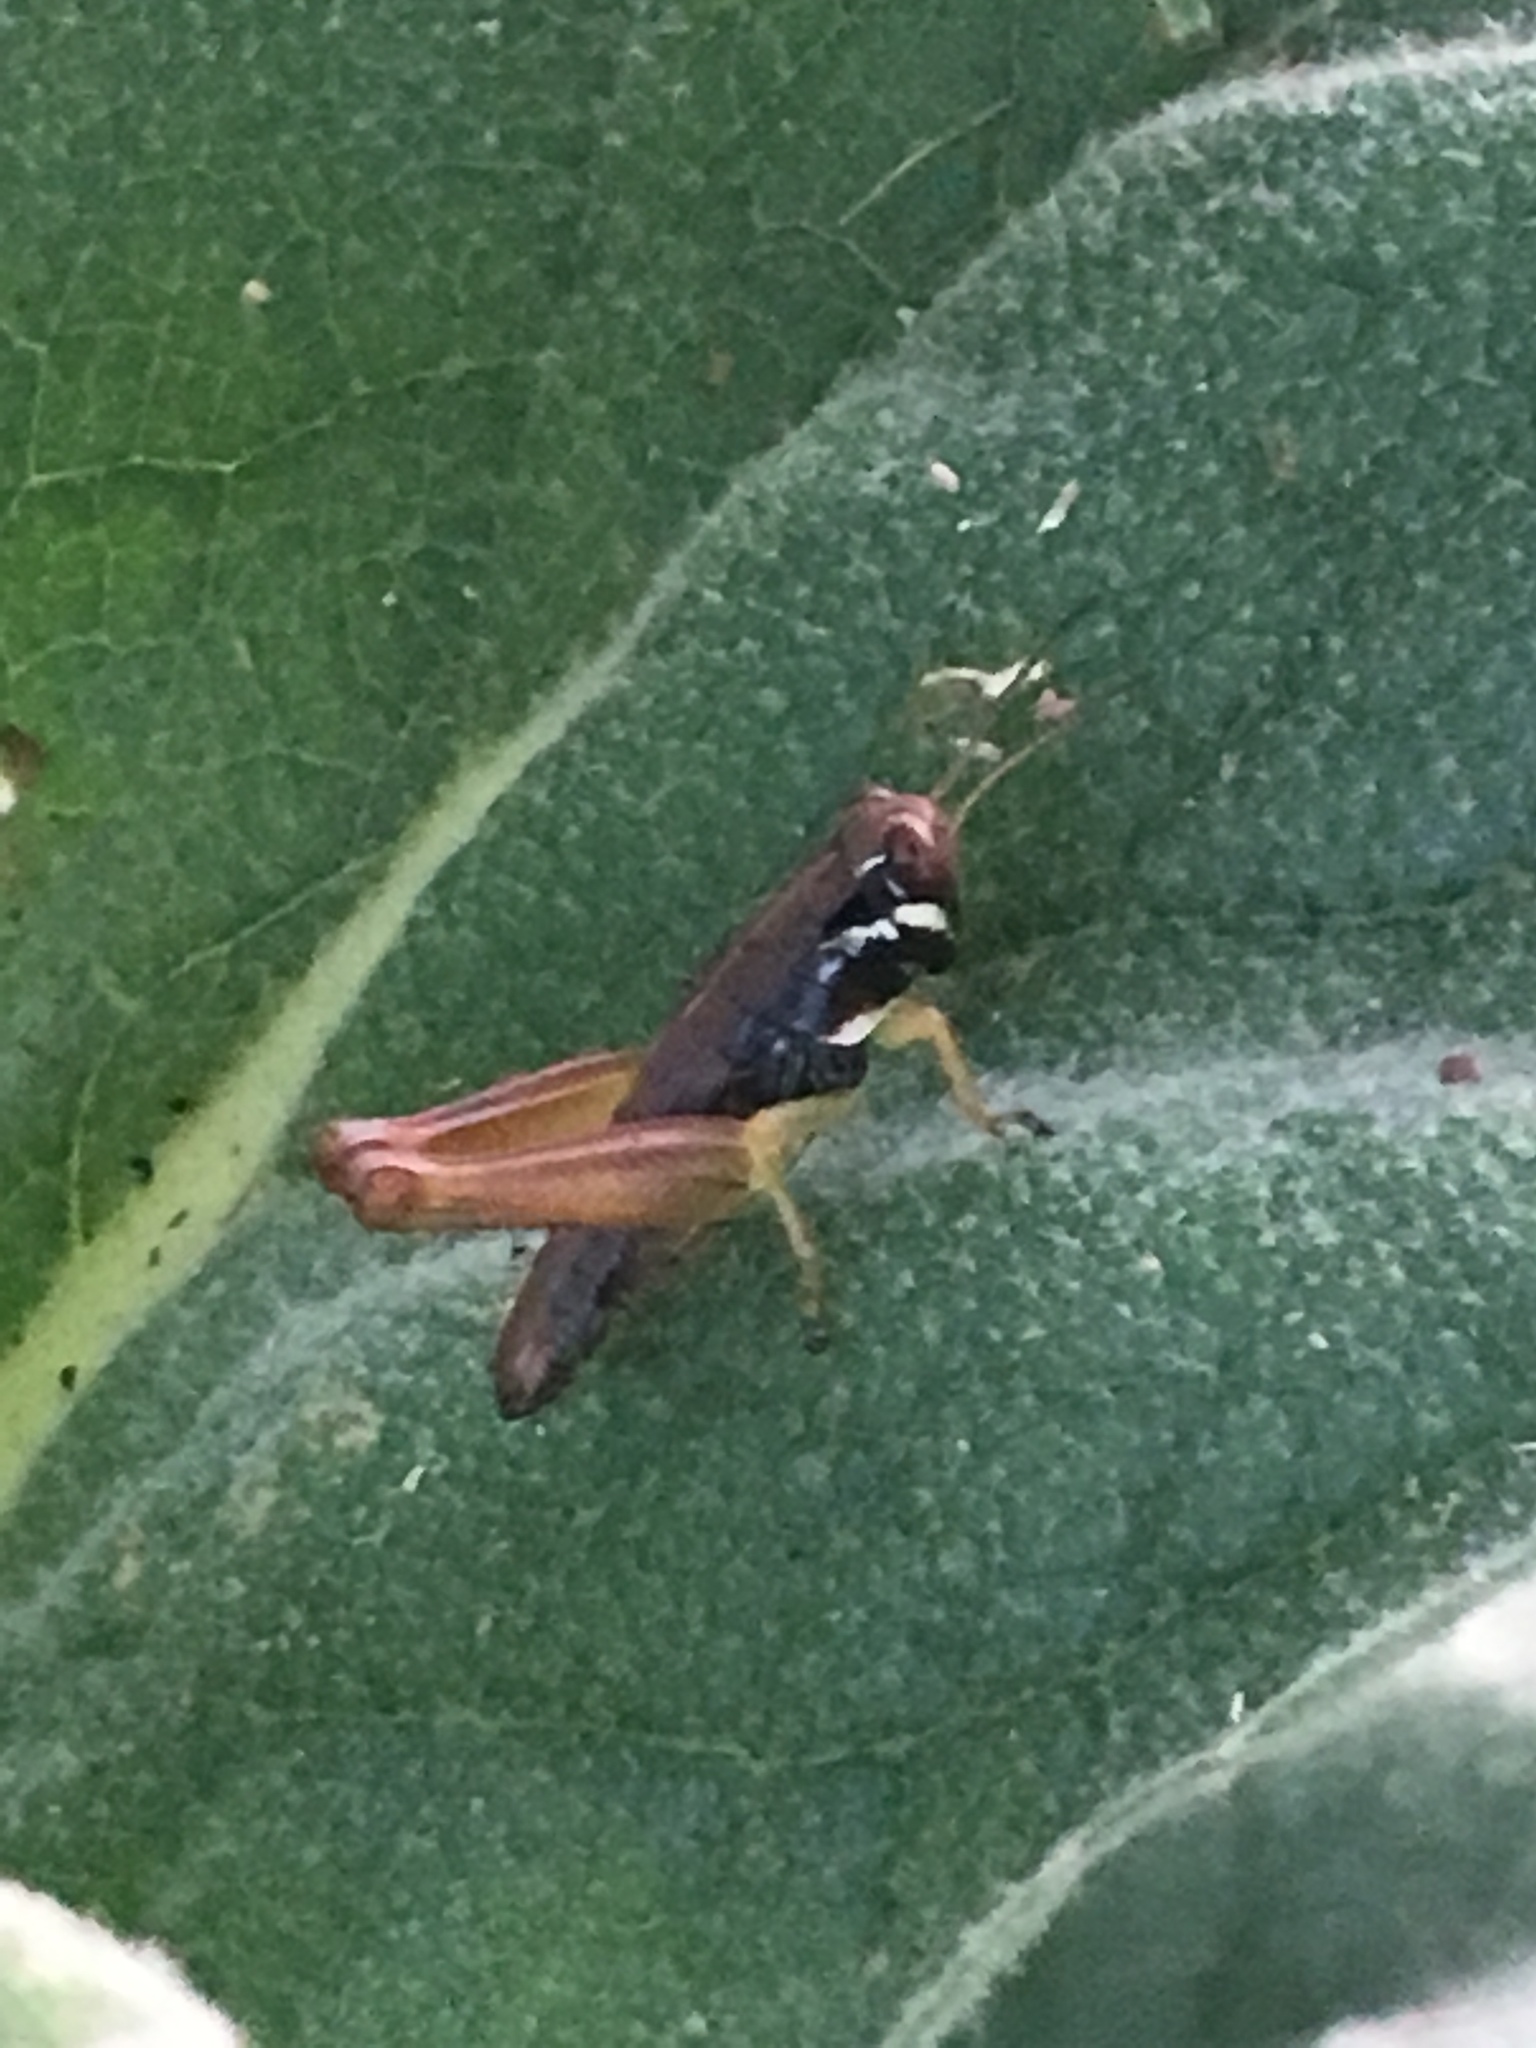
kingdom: Animalia
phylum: Arthropoda
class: Insecta
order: Orthoptera
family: Acrididae
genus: Melanoplus
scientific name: Melanoplus gracilis
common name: Graceful narrow-winged locust
